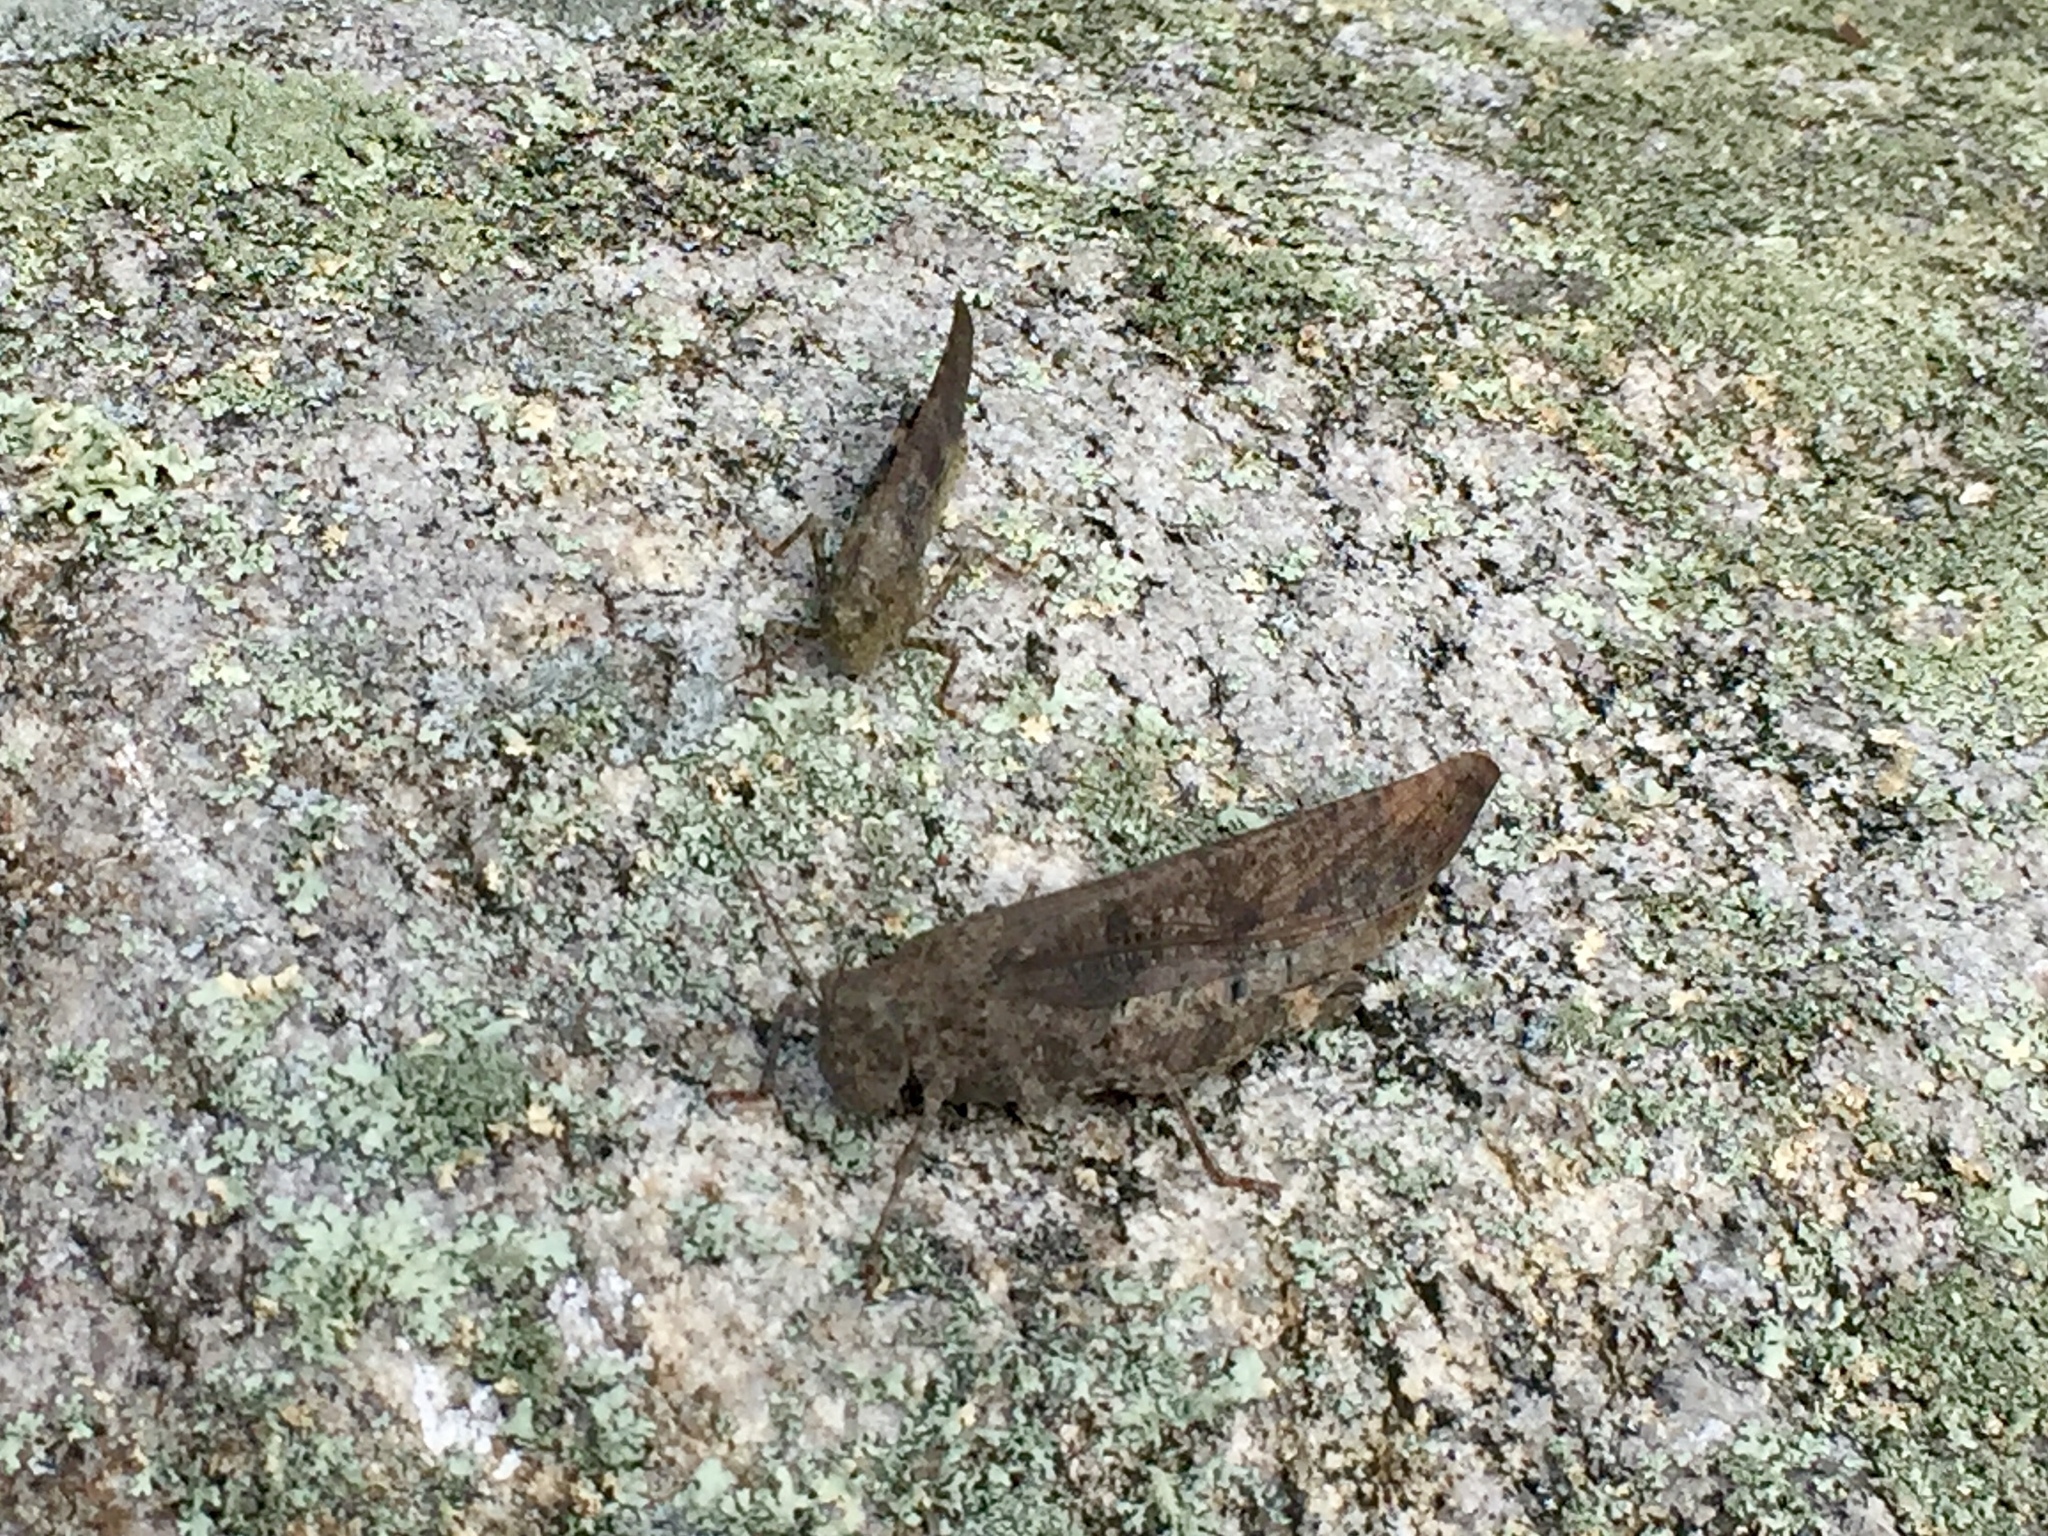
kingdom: Animalia
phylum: Arthropoda
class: Insecta
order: Orthoptera
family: Acrididae
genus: Dissosteira
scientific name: Dissosteira carolina
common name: Carolina grasshopper
